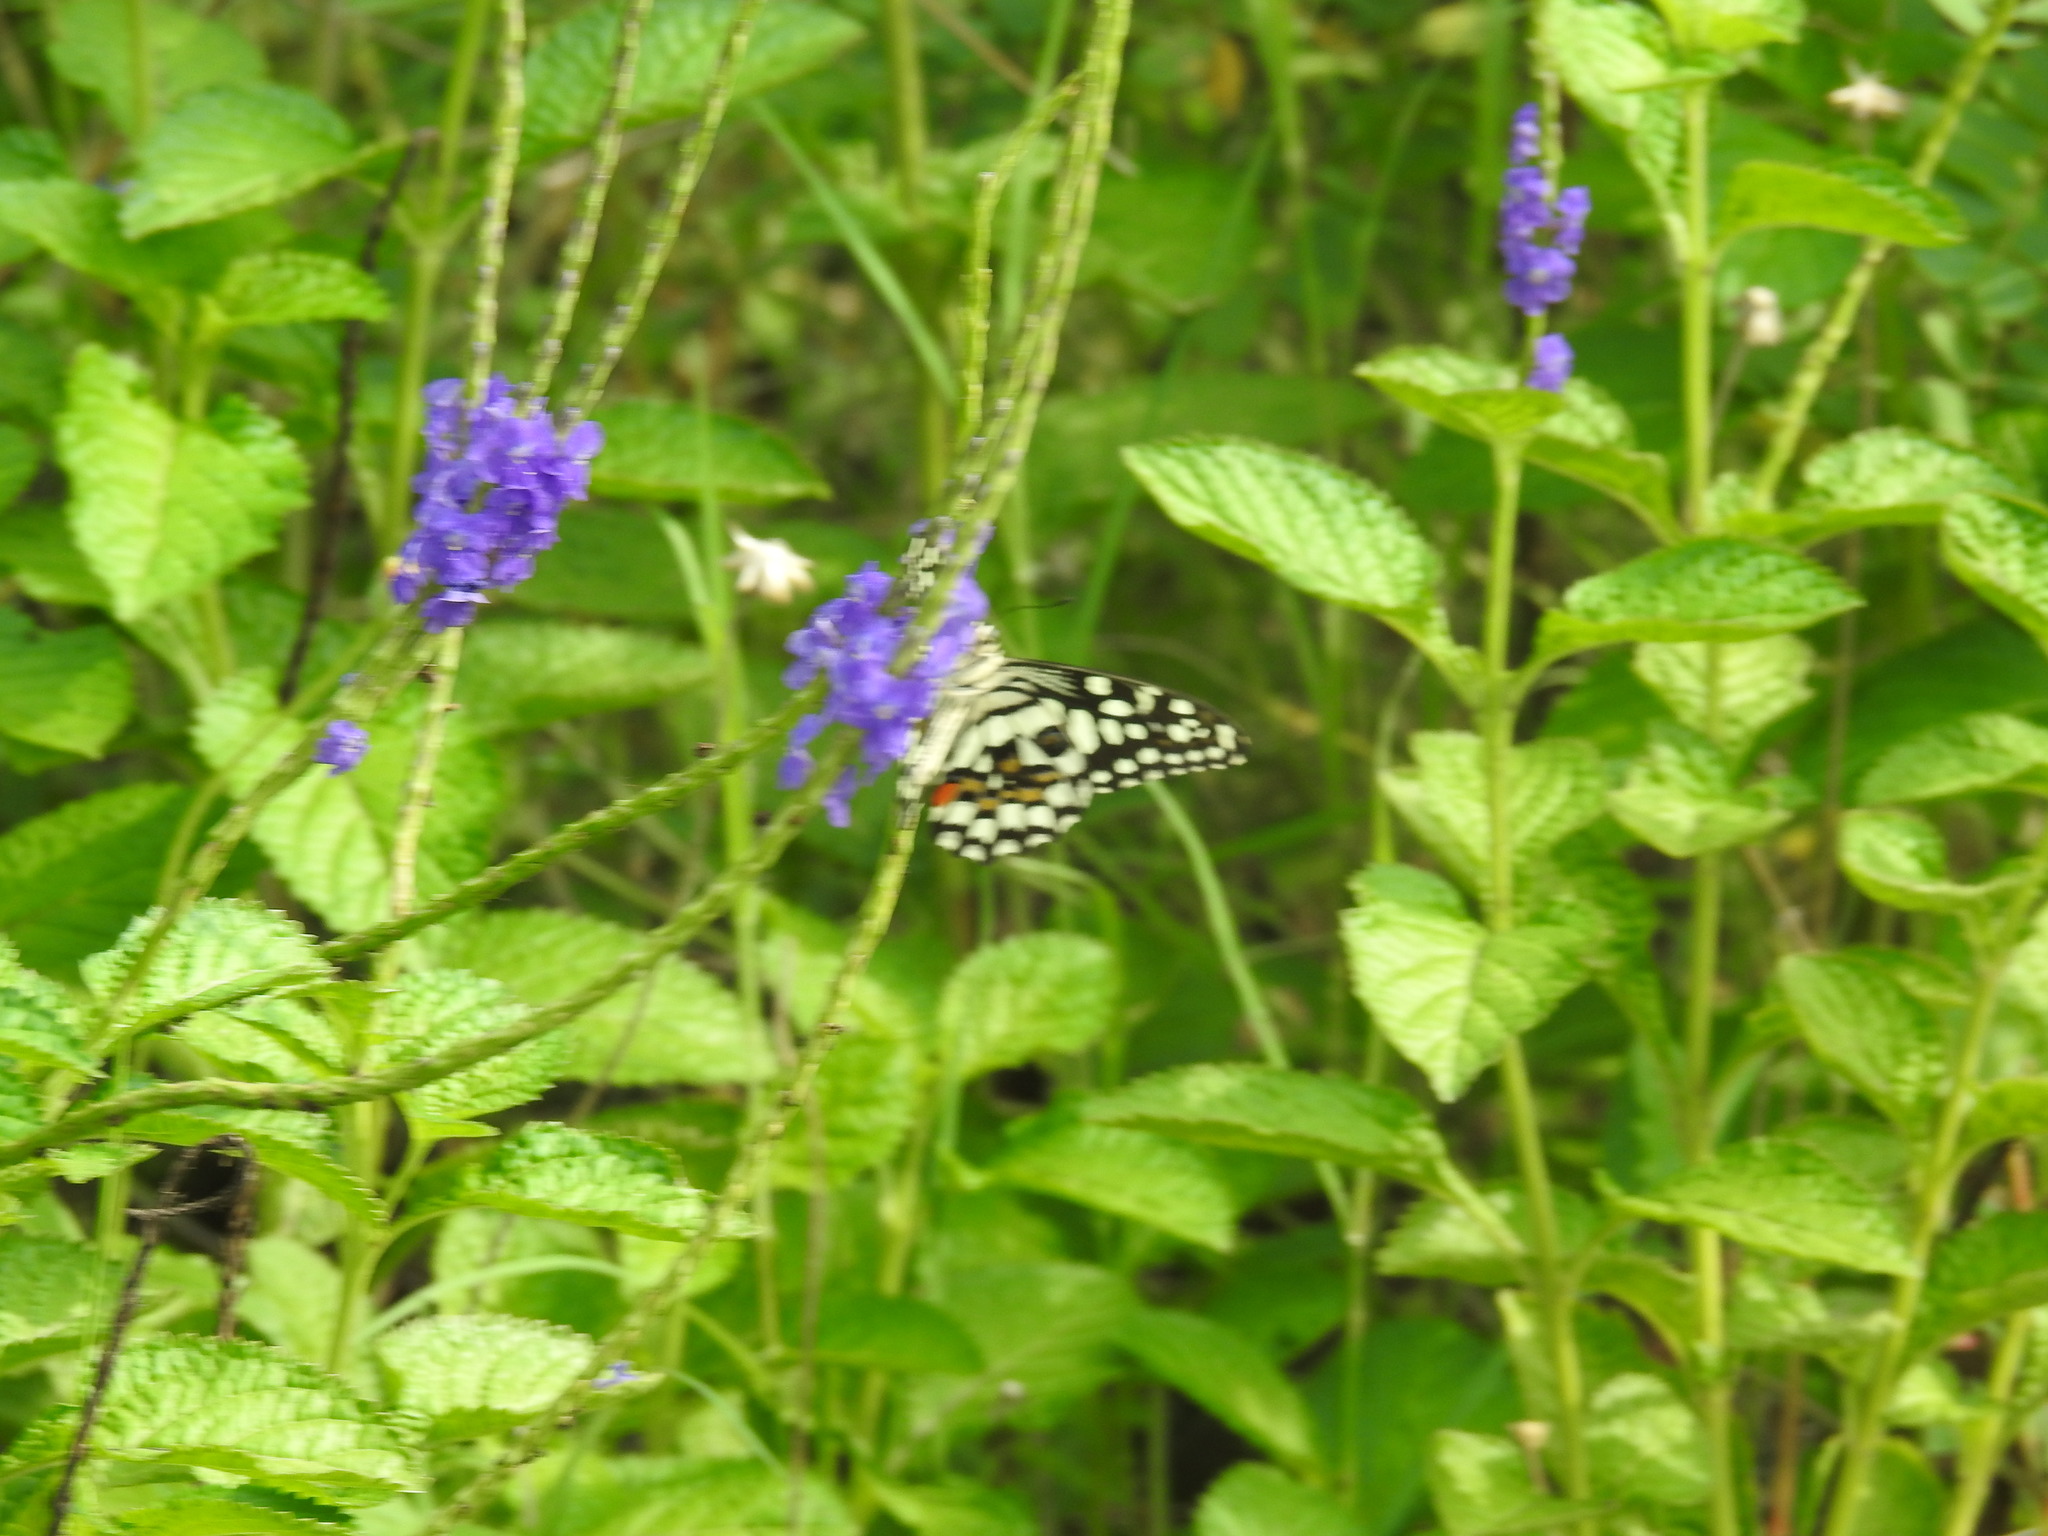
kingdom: Animalia
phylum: Arthropoda
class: Insecta
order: Lepidoptera
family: Papilionidae
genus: Papilio
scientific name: Papilio demoleus
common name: Lime butterfly
